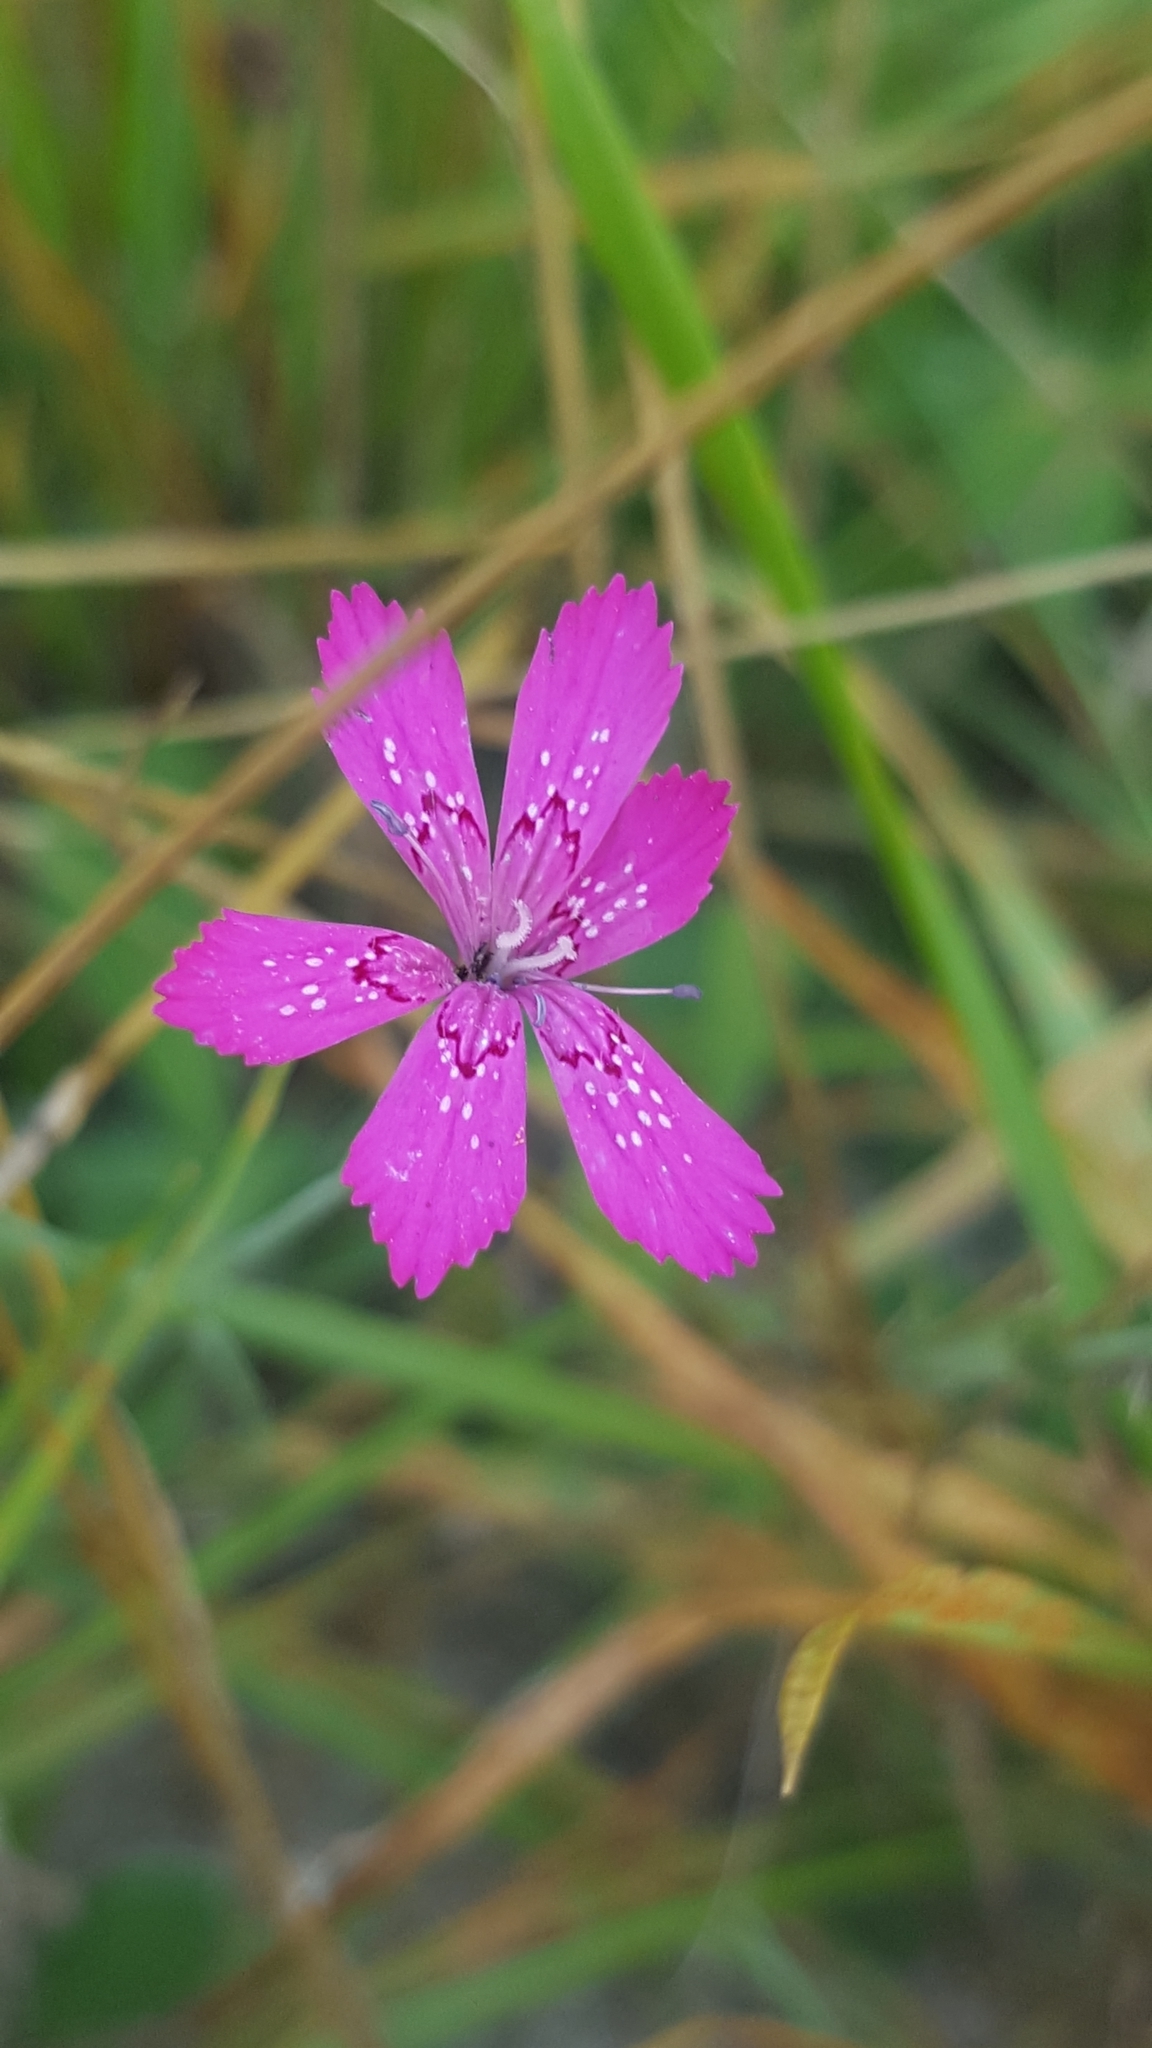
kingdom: Plantae
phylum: Tracheophyta
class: Magnoliopsida
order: Caryophyllales
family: Caryophyllaceae
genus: Dianthus
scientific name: Dianthus deltoides
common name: Maiden pink
